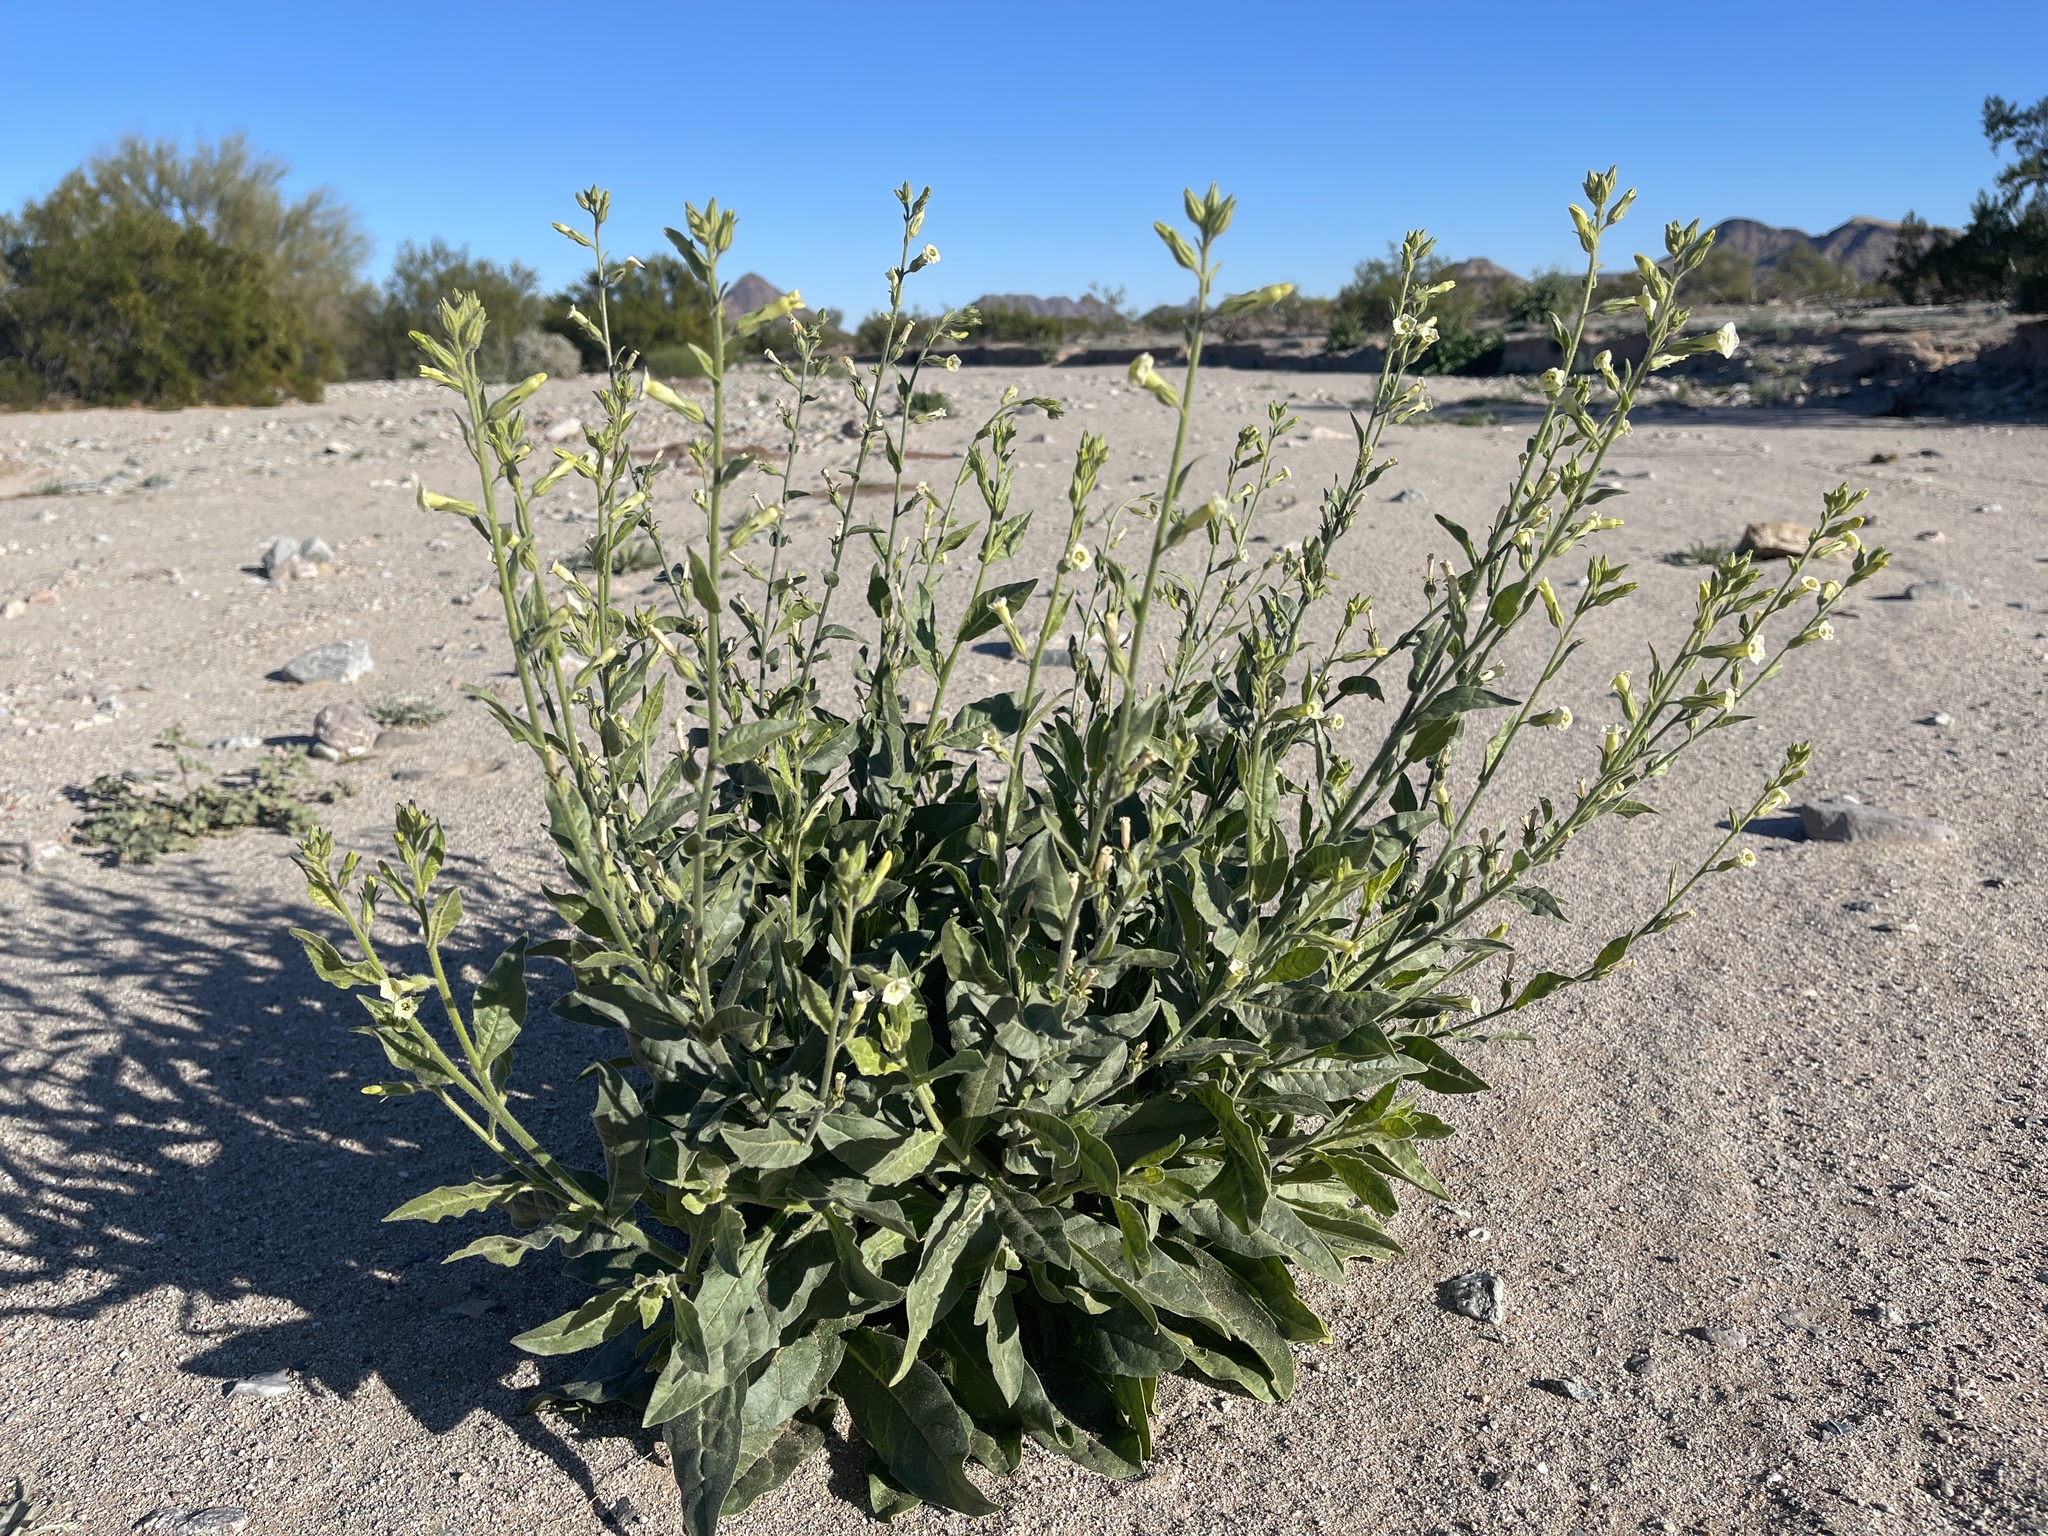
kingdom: Plantae
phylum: Tracheophyta
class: Magnoliopsida
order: Solanales
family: Solanaceae
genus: Nicotiana
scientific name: Nicotiana obtusifolia
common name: Desert tobacco
